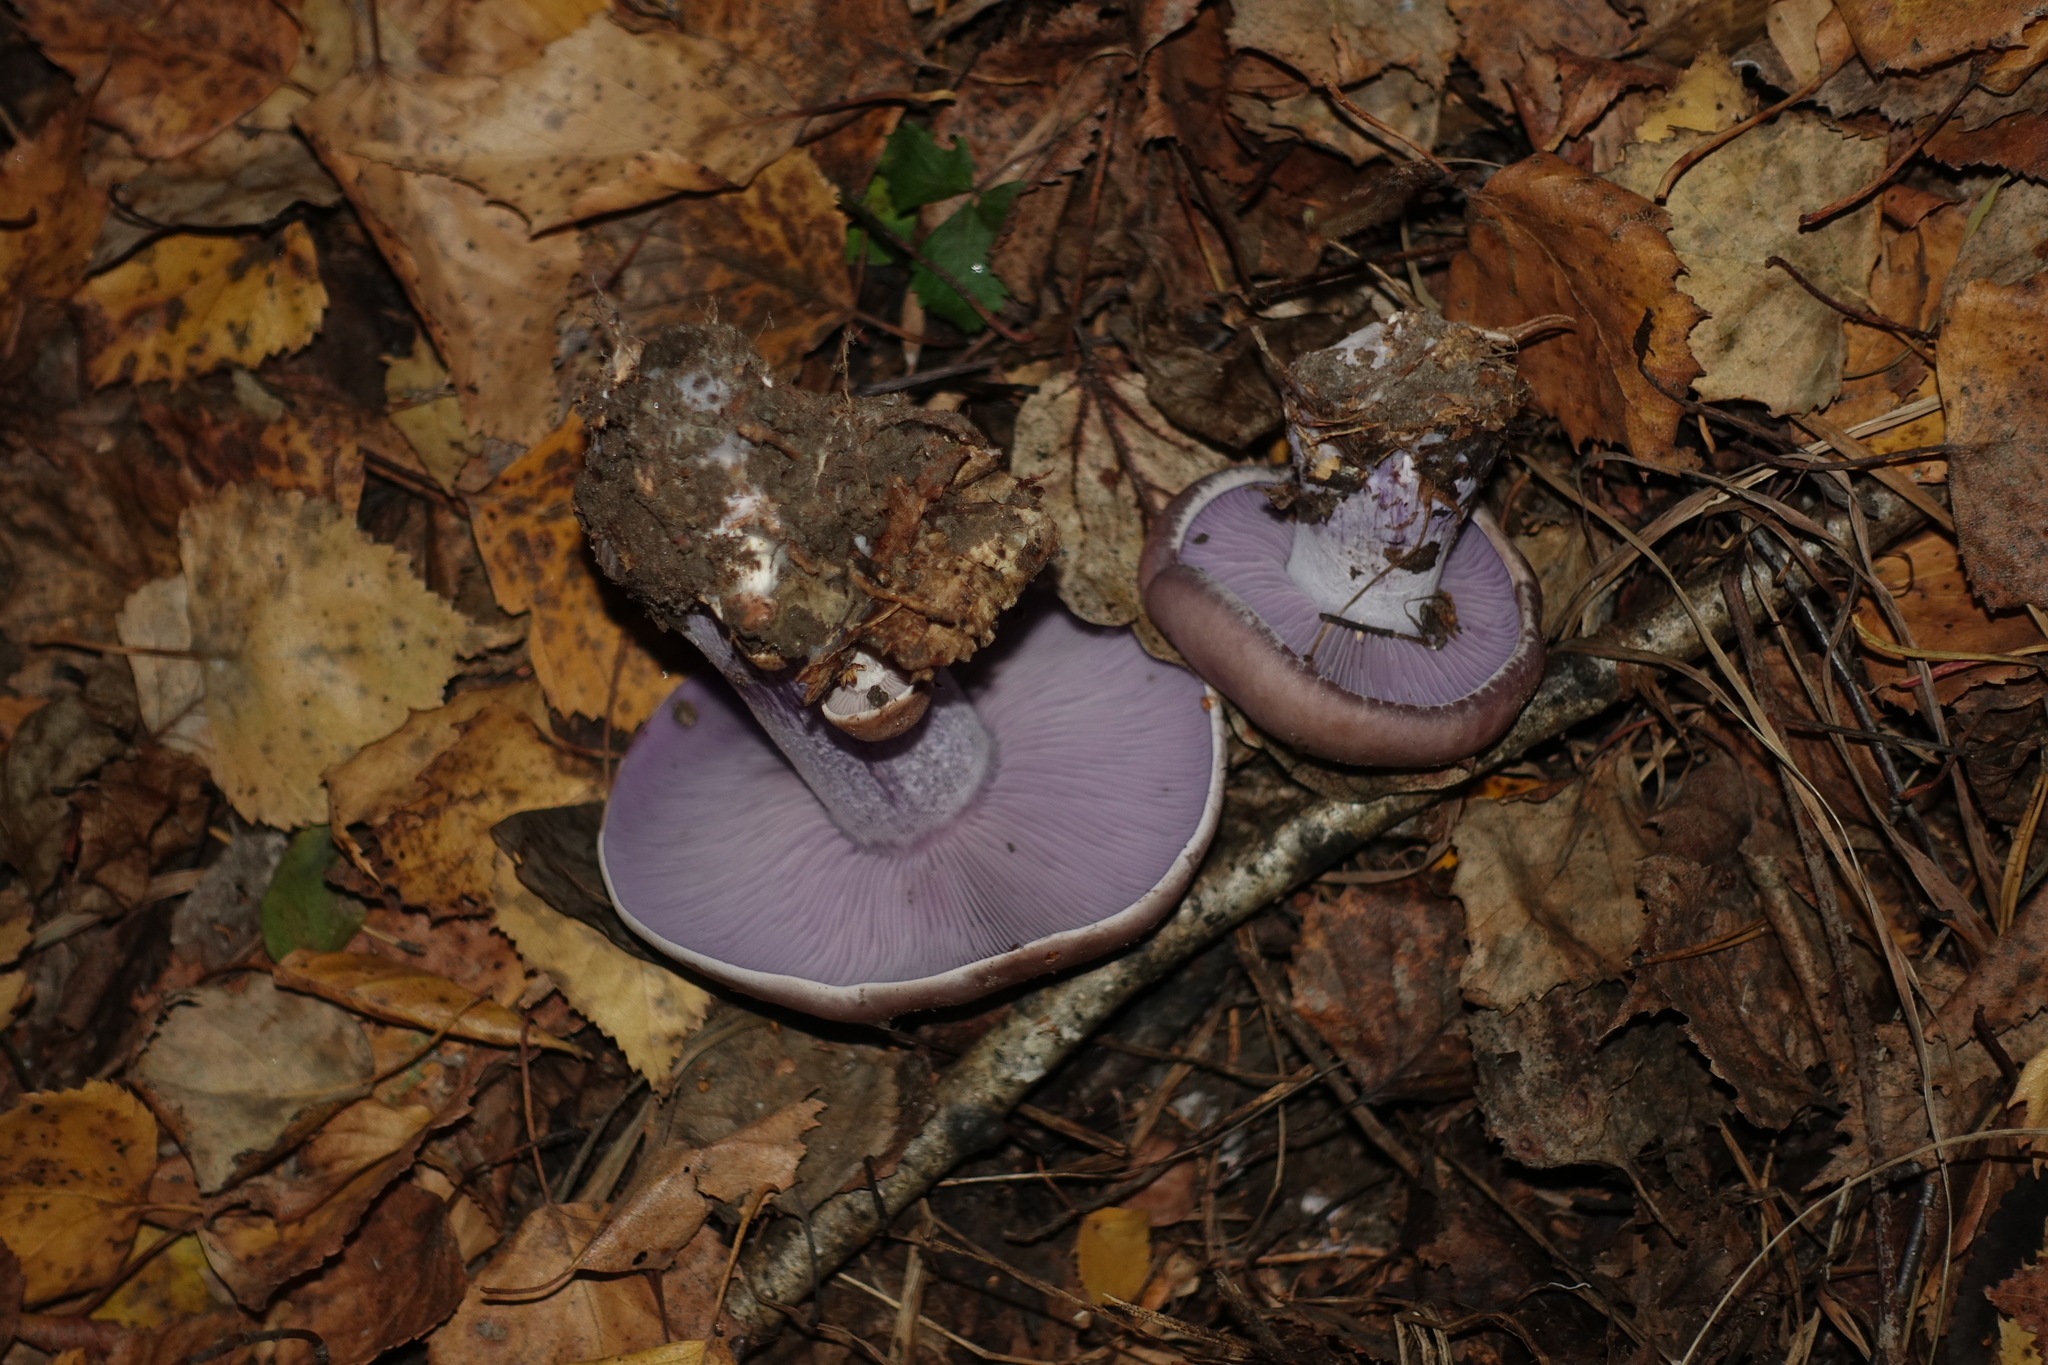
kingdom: Fungi
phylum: Basidiomycota
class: Agaricomycetes
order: Agaricales
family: Tricholomataceae
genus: Collybia
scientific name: Collybia
